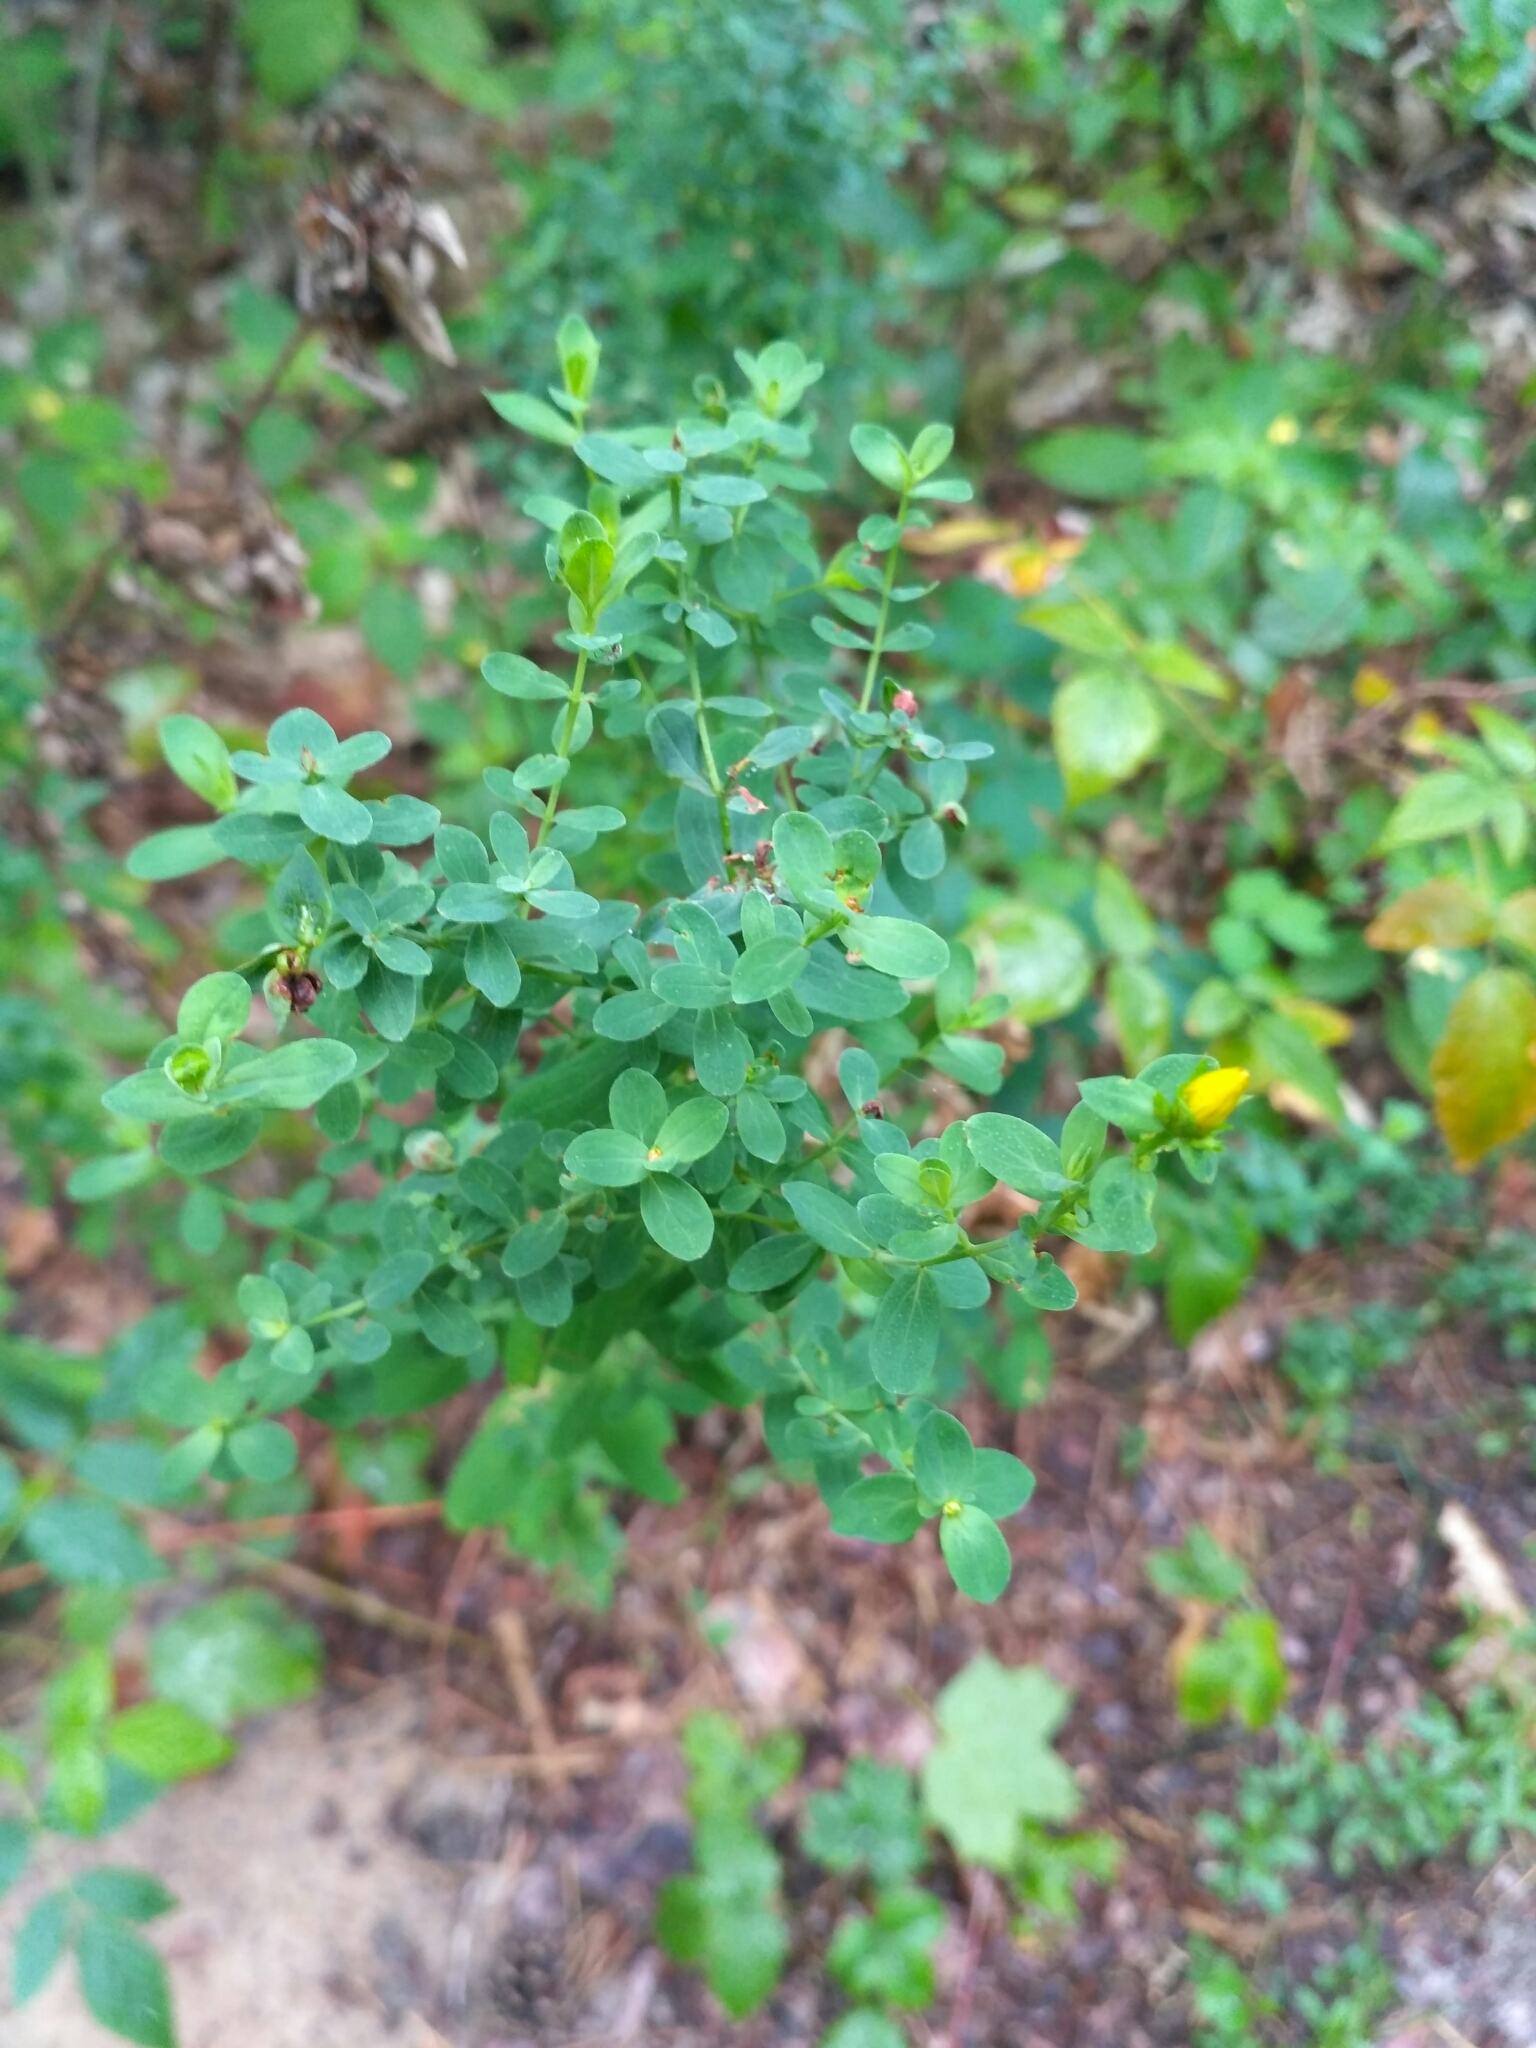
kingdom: Plantae
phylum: Tracheophyta
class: Magnoliopsida
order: Malpighiales
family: Hypericaceae
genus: Hypericum
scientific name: Hypericum perforatum
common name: Common st. johnswort
